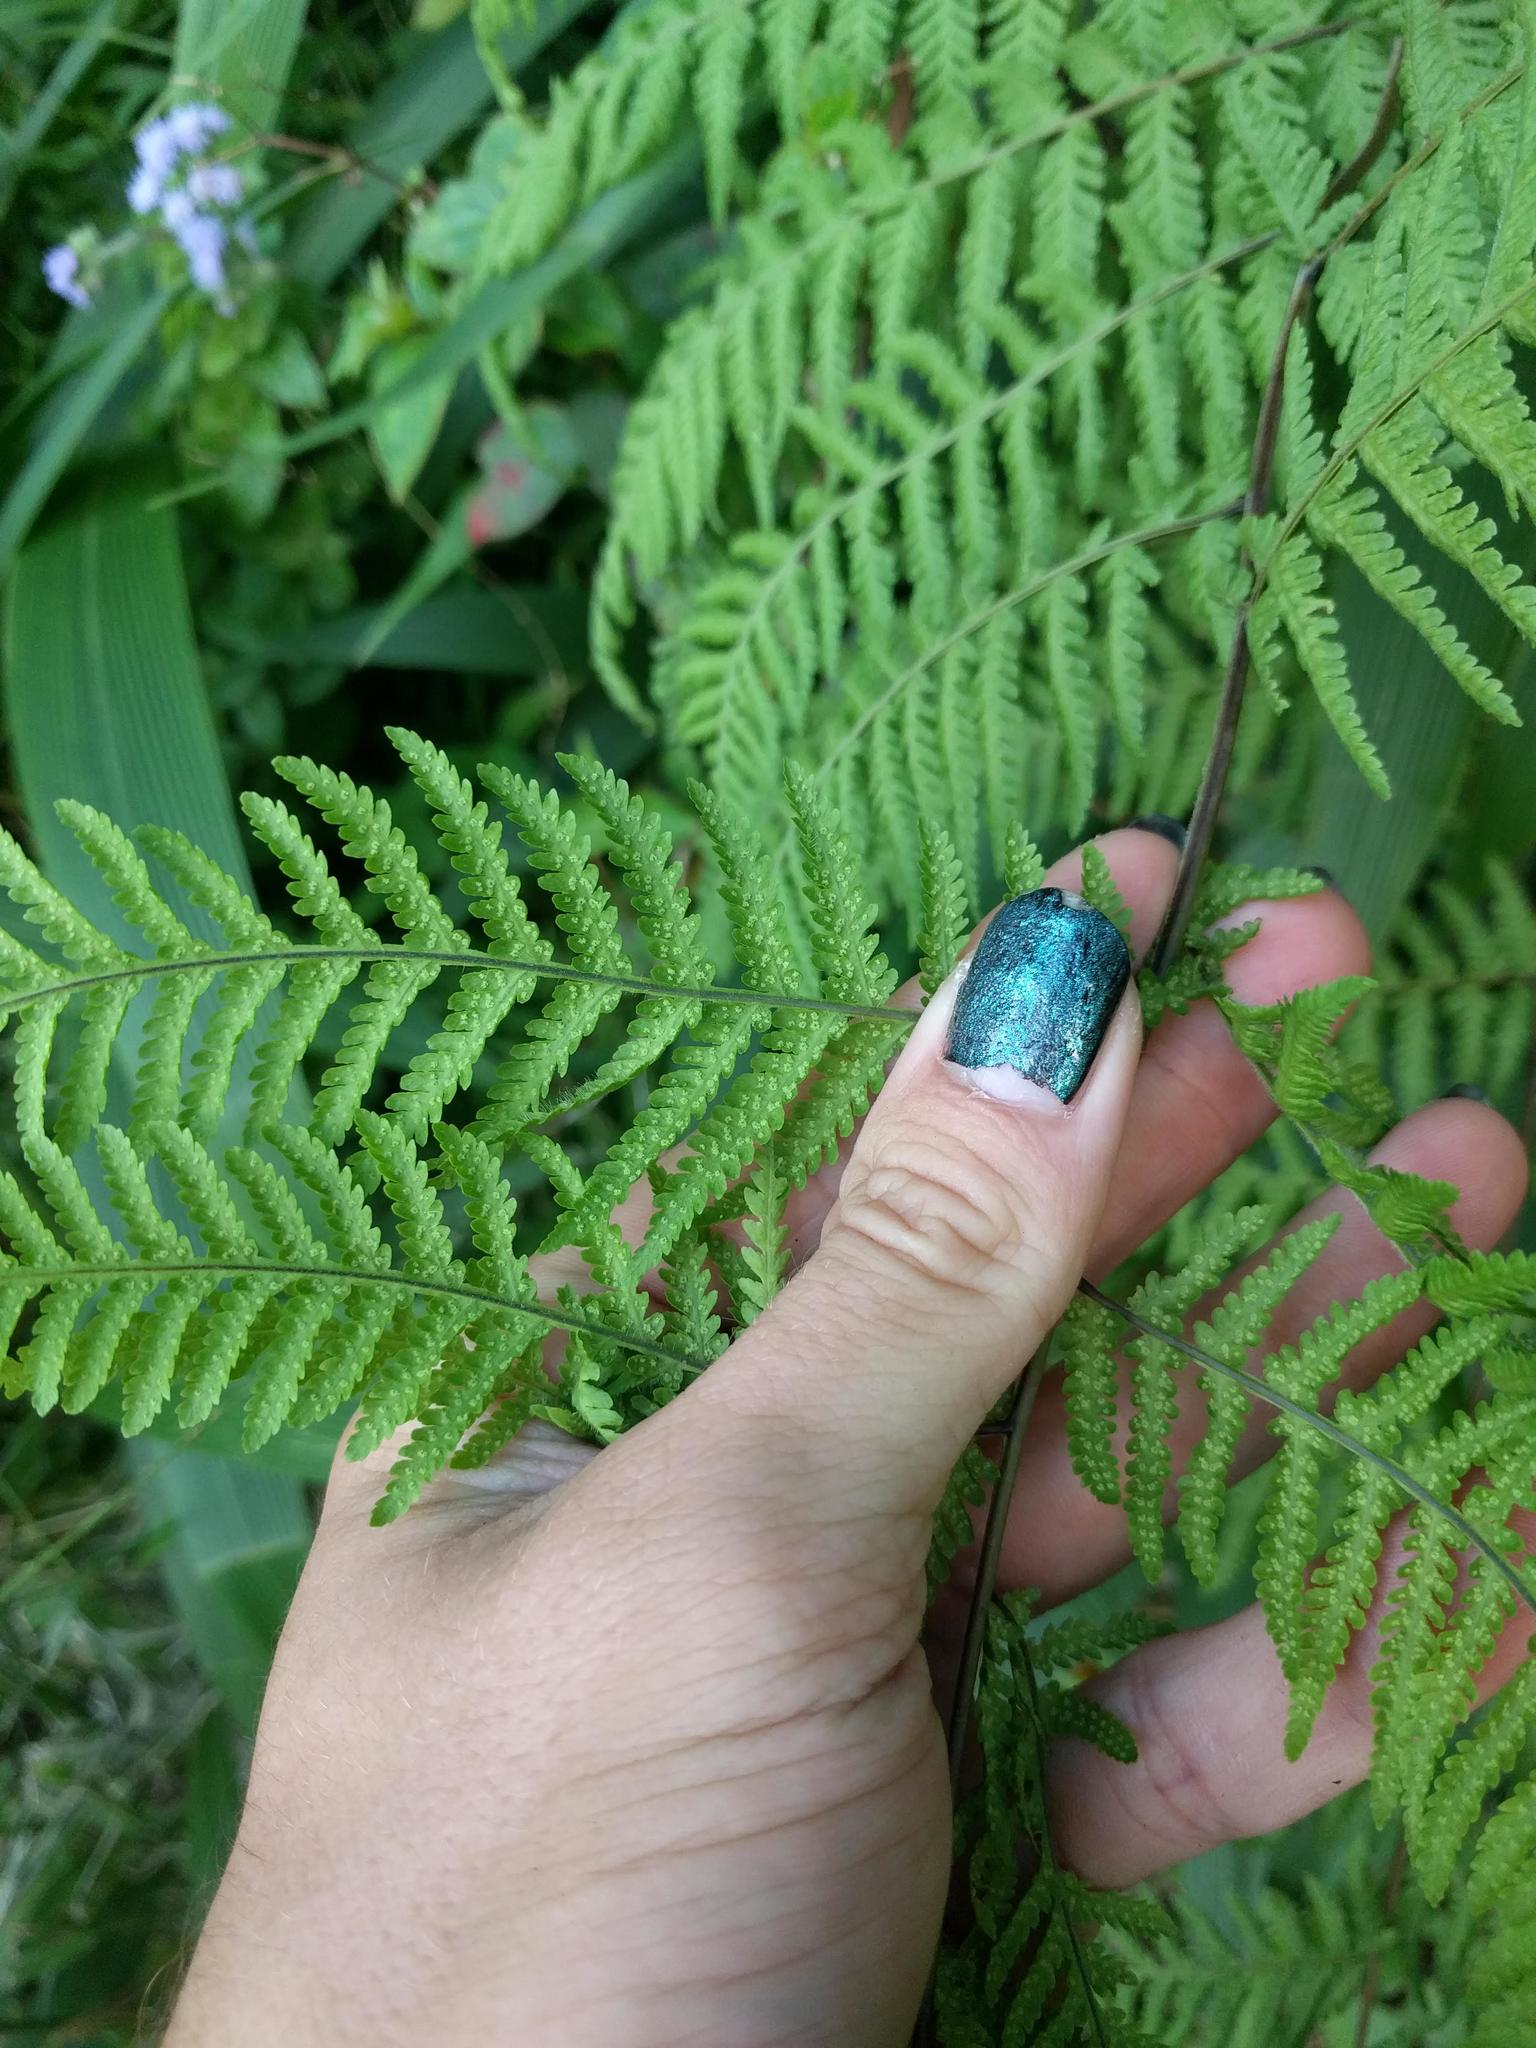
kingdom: Plantae
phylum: Tracheophyta
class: Polypodiopsida
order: Polypodiales
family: Thelypteridaceae
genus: Macrothelypteris
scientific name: Macrothelypteris torresiana
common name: Swordfern
